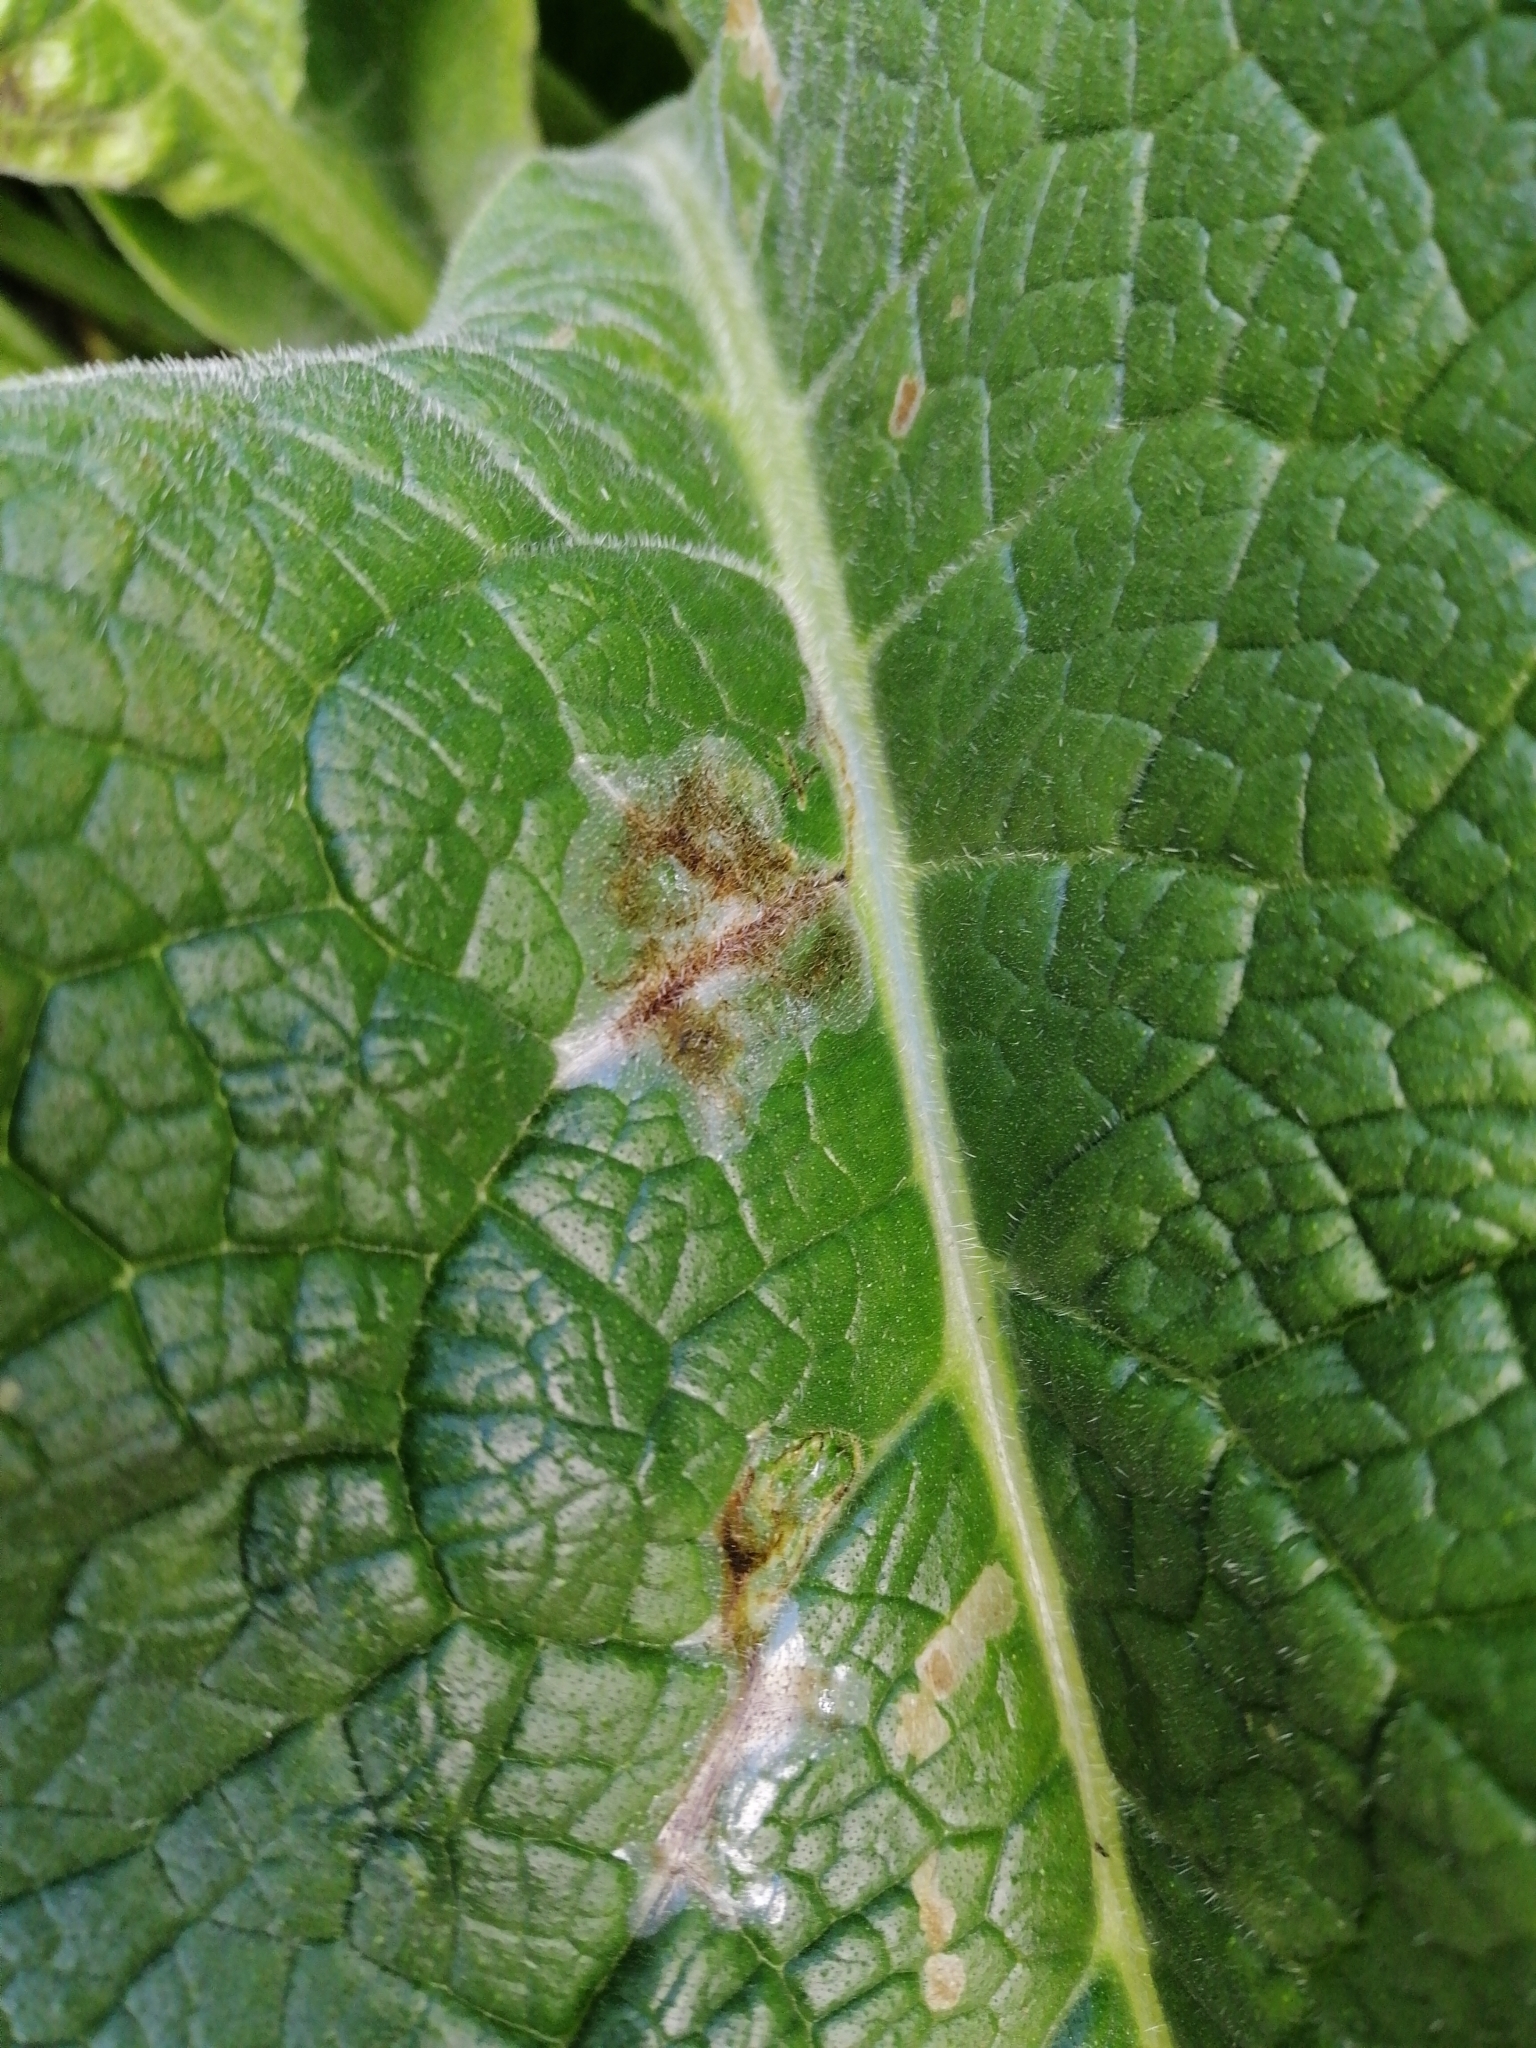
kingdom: Animalia
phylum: Arthropoda
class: Insecta
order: Lepidoptera
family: Gracillariidae
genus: Dialectica
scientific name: Dialectica scalariella
